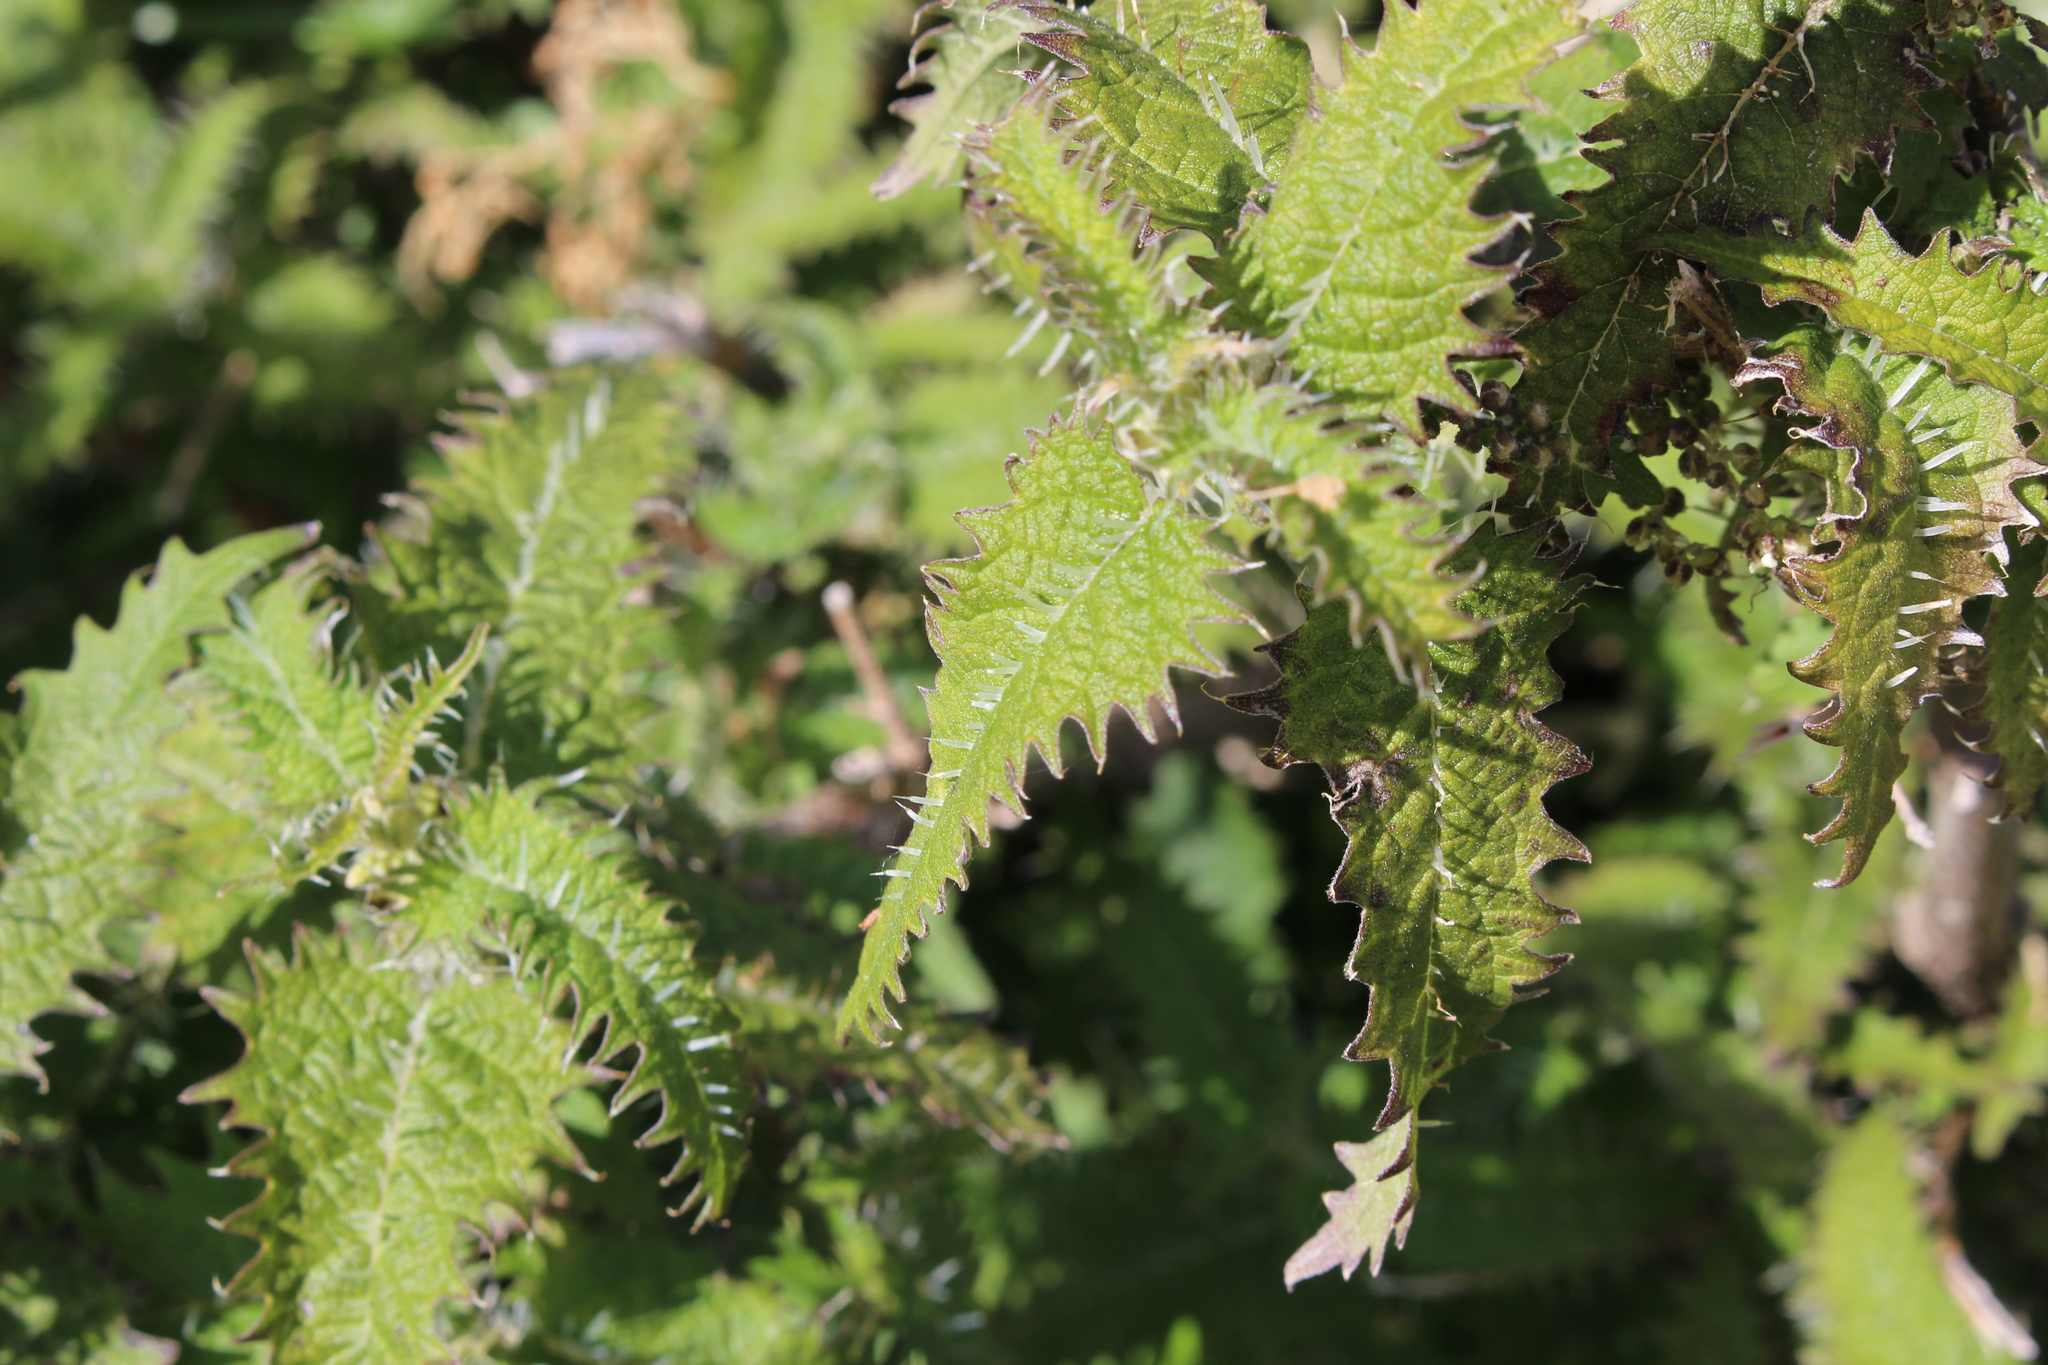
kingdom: Plantae
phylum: Tracheophyta
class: Magnoliopsida
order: Rosales
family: Urticaceae
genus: Urtica
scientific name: Urtica ferox
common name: Tree nettle
